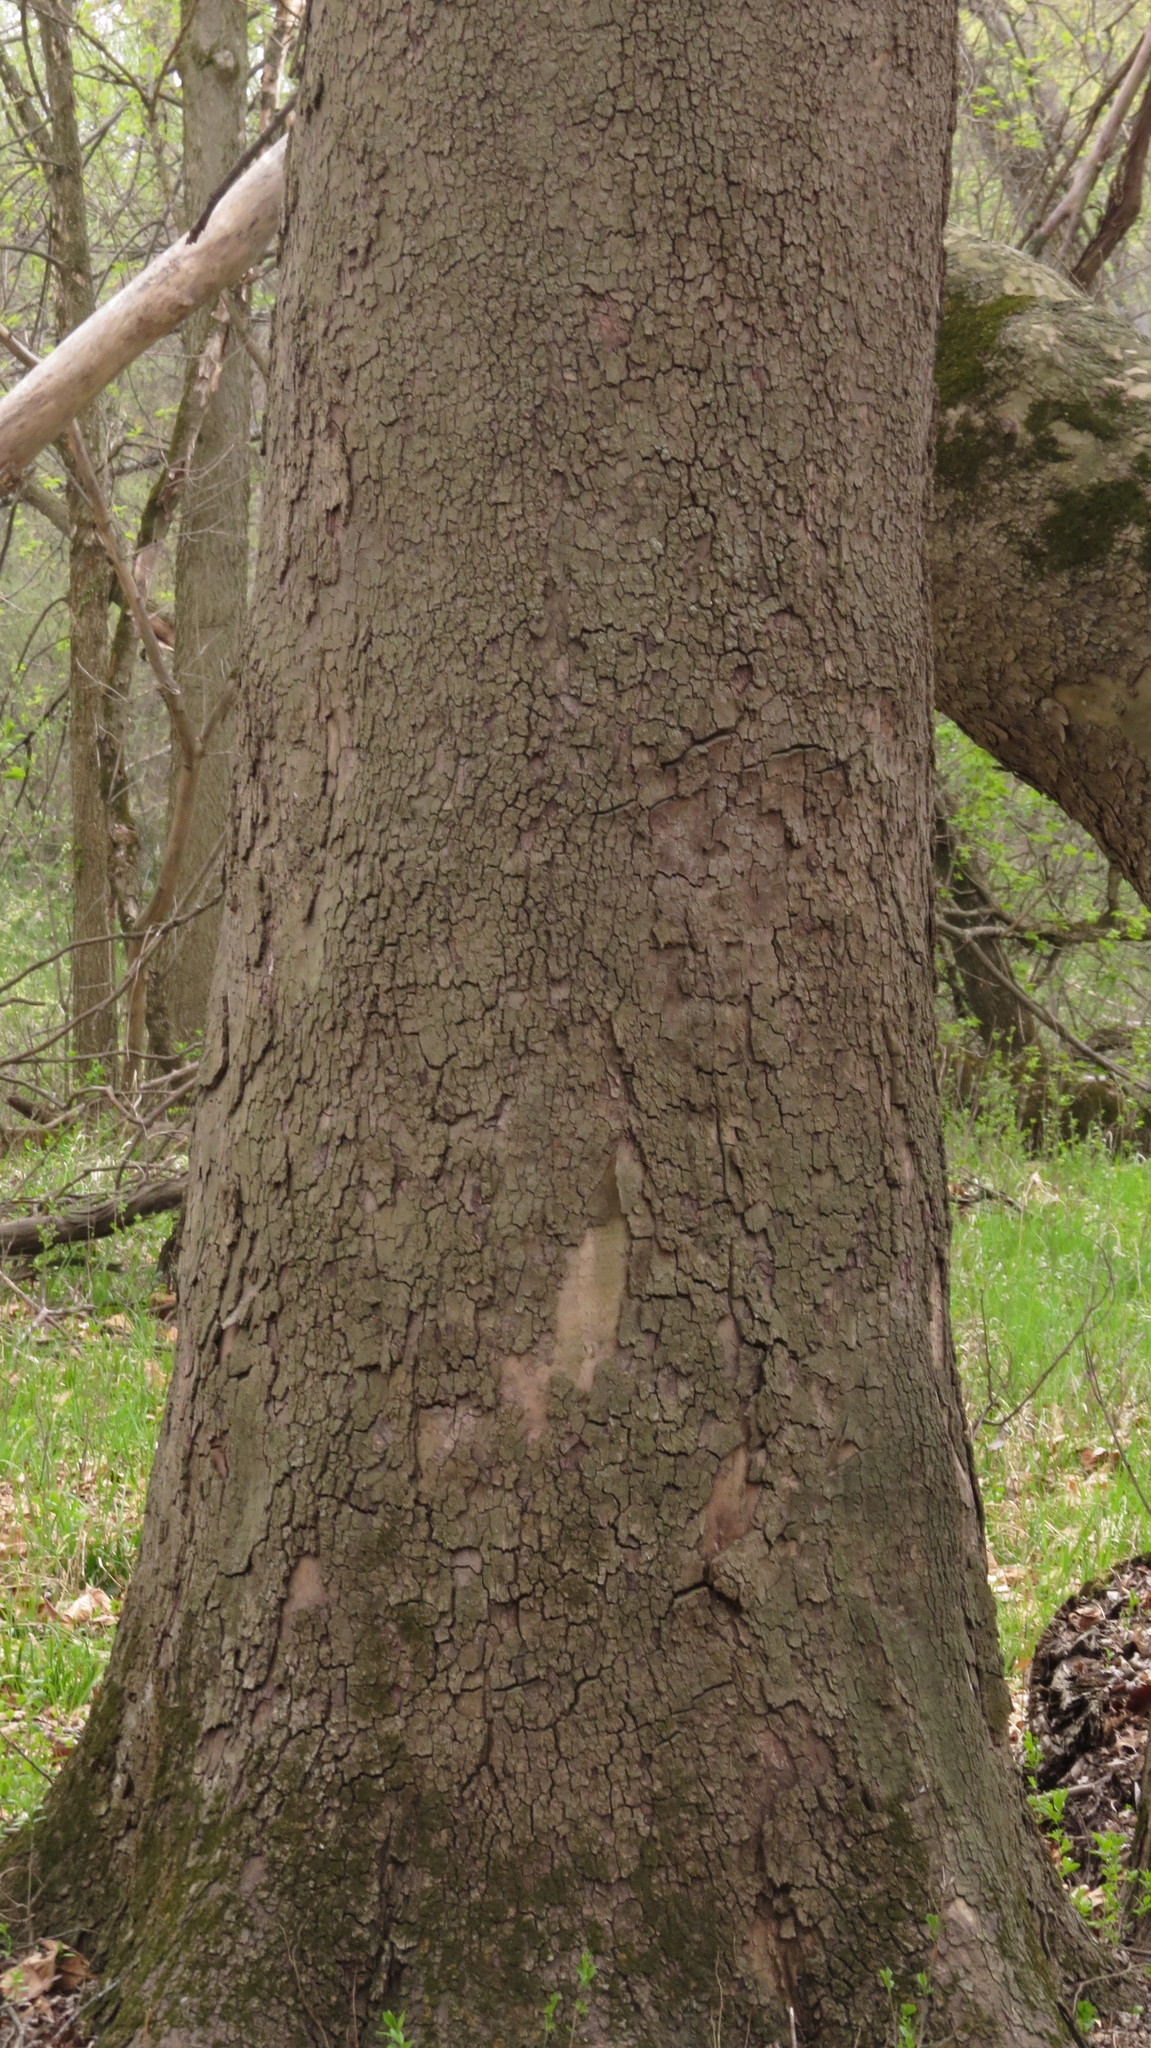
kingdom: Plantae
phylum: Tracheophyta
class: Magnoliopsida
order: Proteales
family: Platanaceae
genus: Platanus
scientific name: Platanus occidentalis
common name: American sycamore
